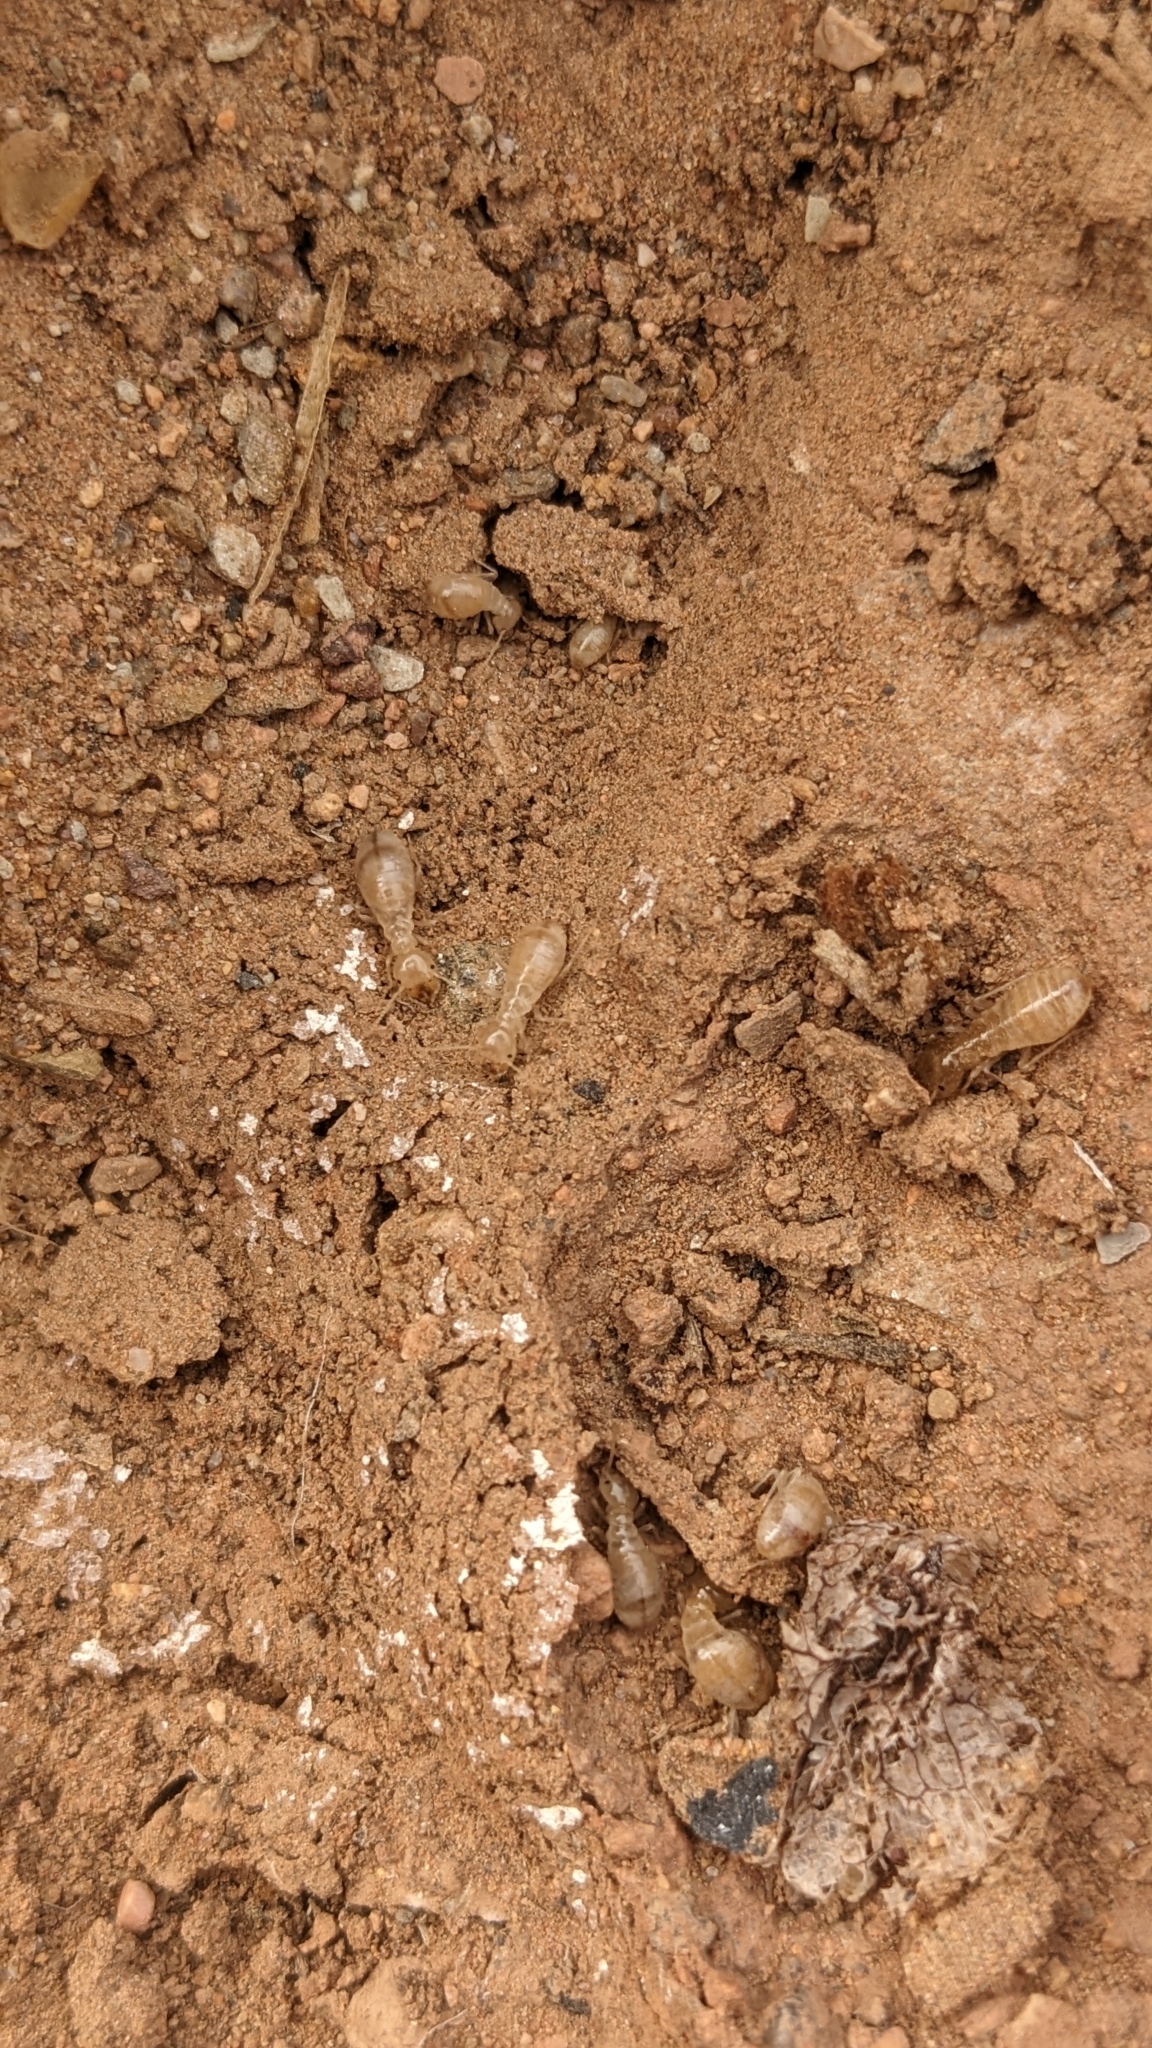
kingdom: Animalia
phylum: Arthropoda
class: Insecta
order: Blattodea
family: Hodotermitidae
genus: Anacanthotermes
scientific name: Anacanthotermes ochraceus
